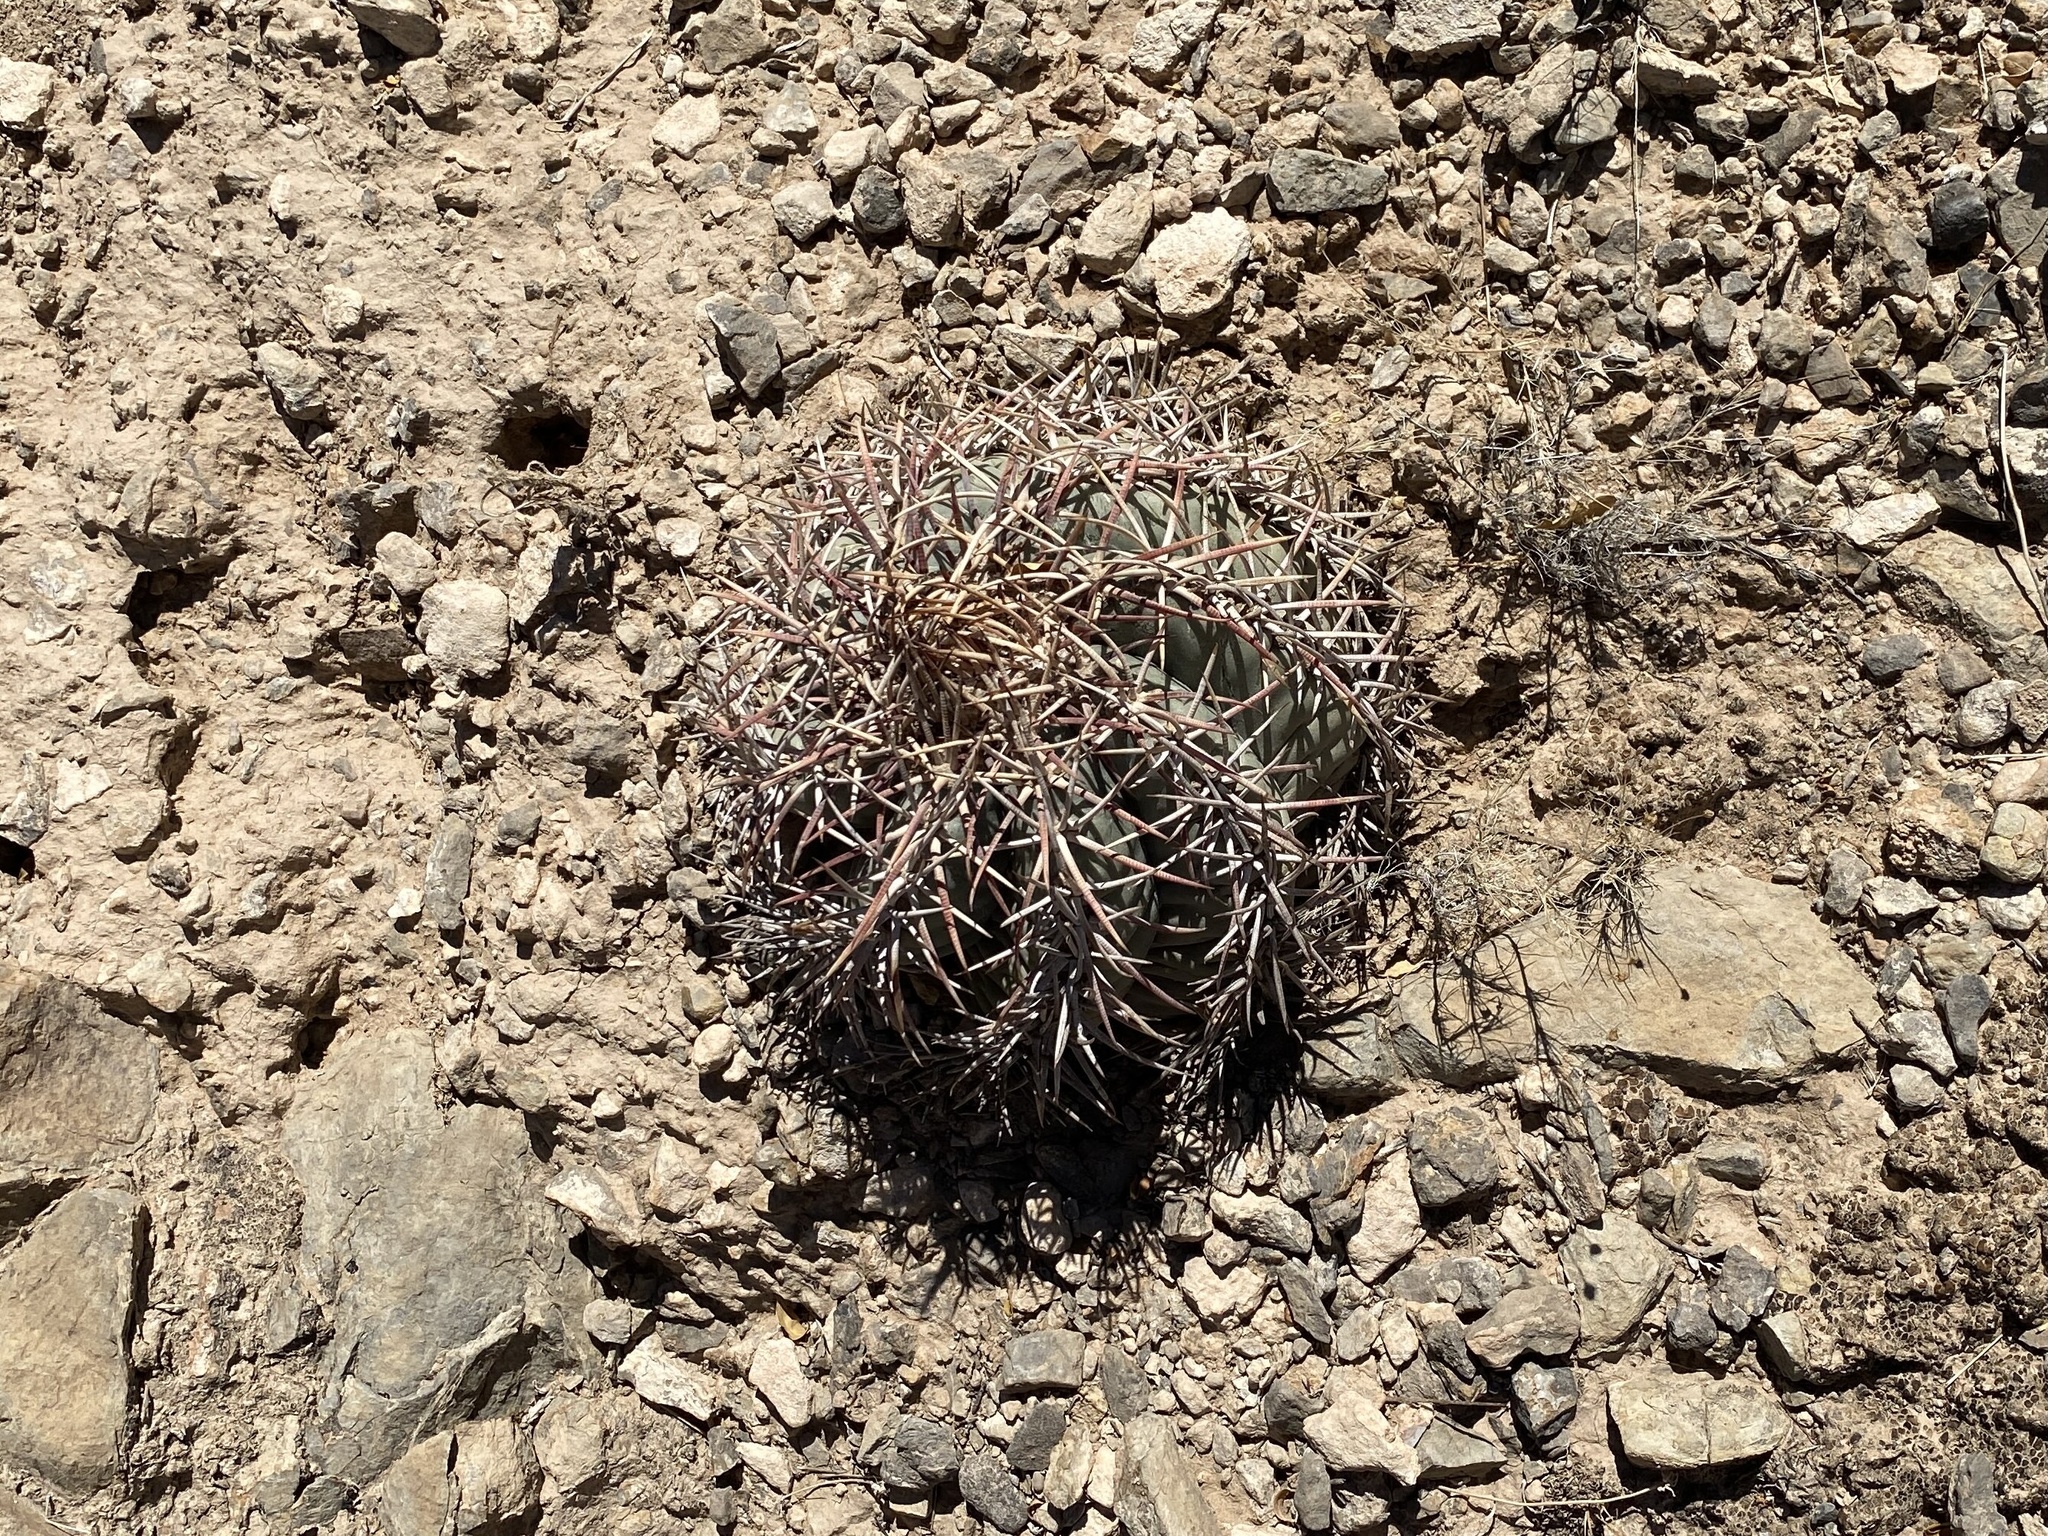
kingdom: Plantae
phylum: Tracheophyta
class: Magnoliopsida
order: Caryophyllales
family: Cactaceae
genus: Echinocactus
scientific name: Echinocactus horizonthalonius
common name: Devilshead
